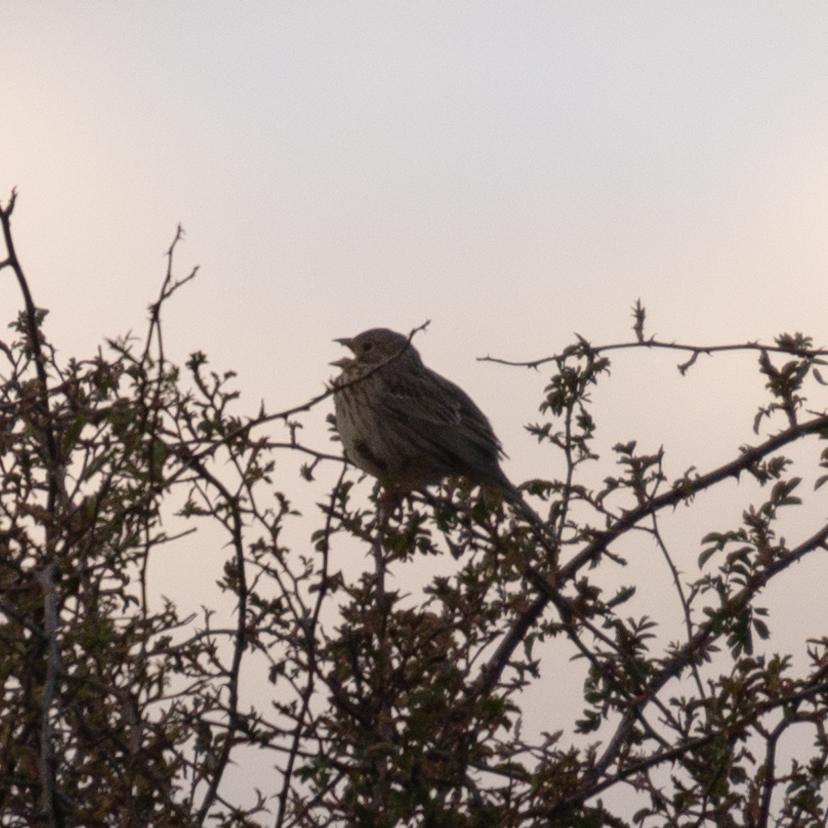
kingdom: Animalia
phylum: Chordata
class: Aves
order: Passeriformes
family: Emberizidae
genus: Emberiza
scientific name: Emberiza calandra
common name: Corn bunting
